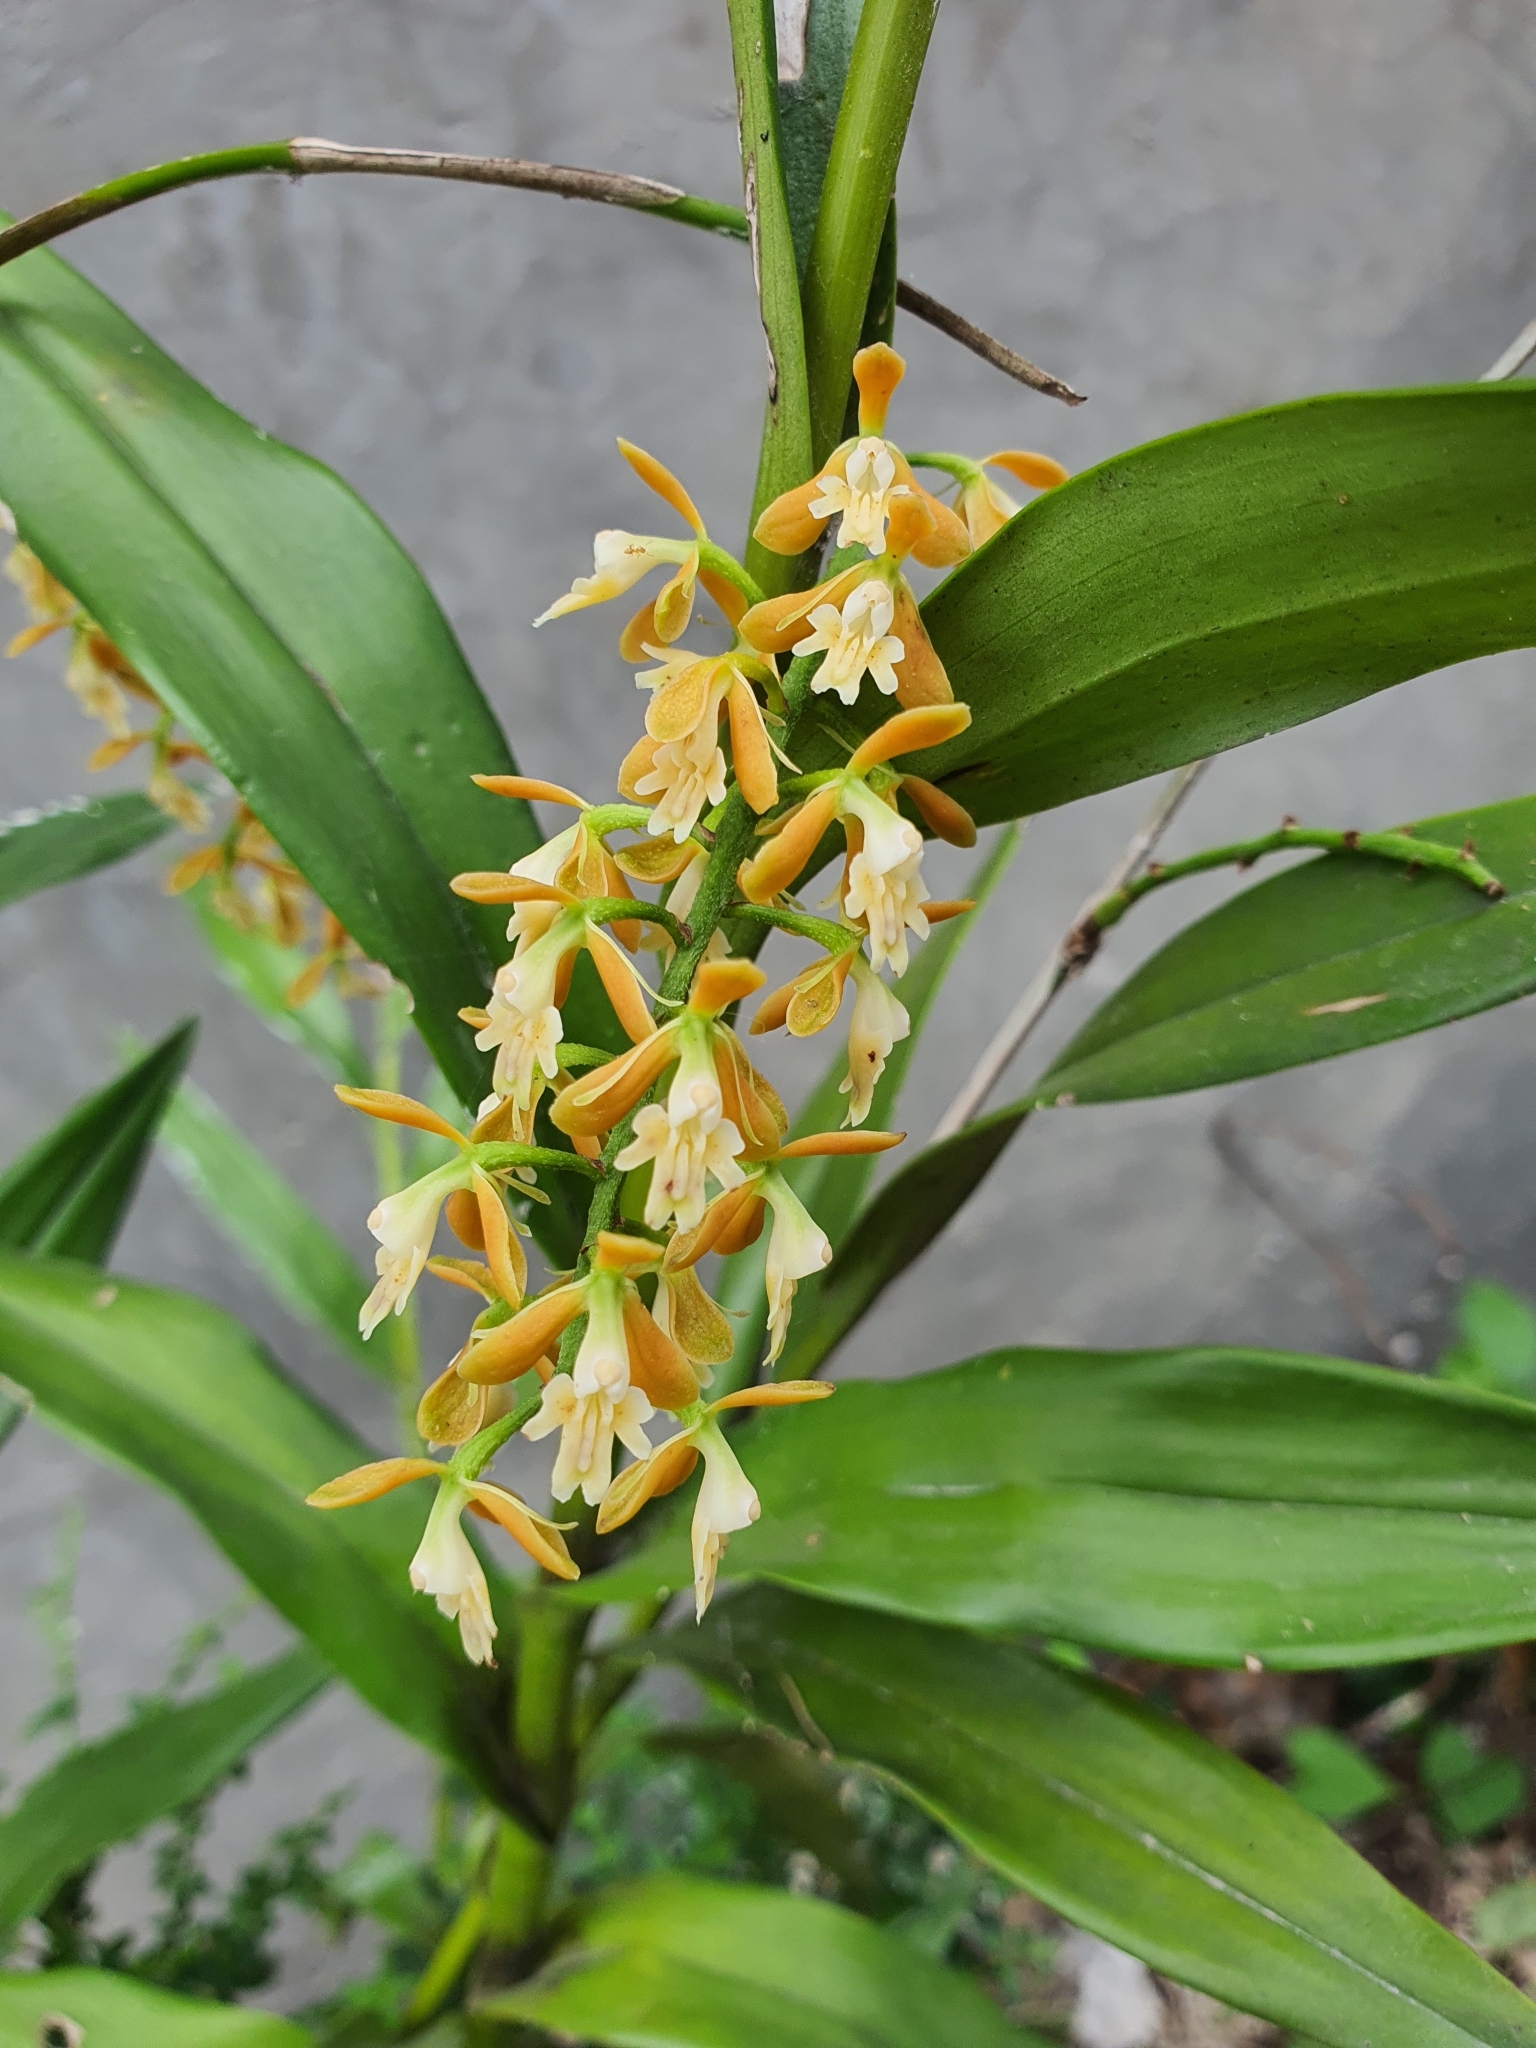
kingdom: Plantae
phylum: Tracheophyta
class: Liliopsida
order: Asparagales
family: Orchidaceae
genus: Epidendrum
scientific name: Epidendrum polyanthum
